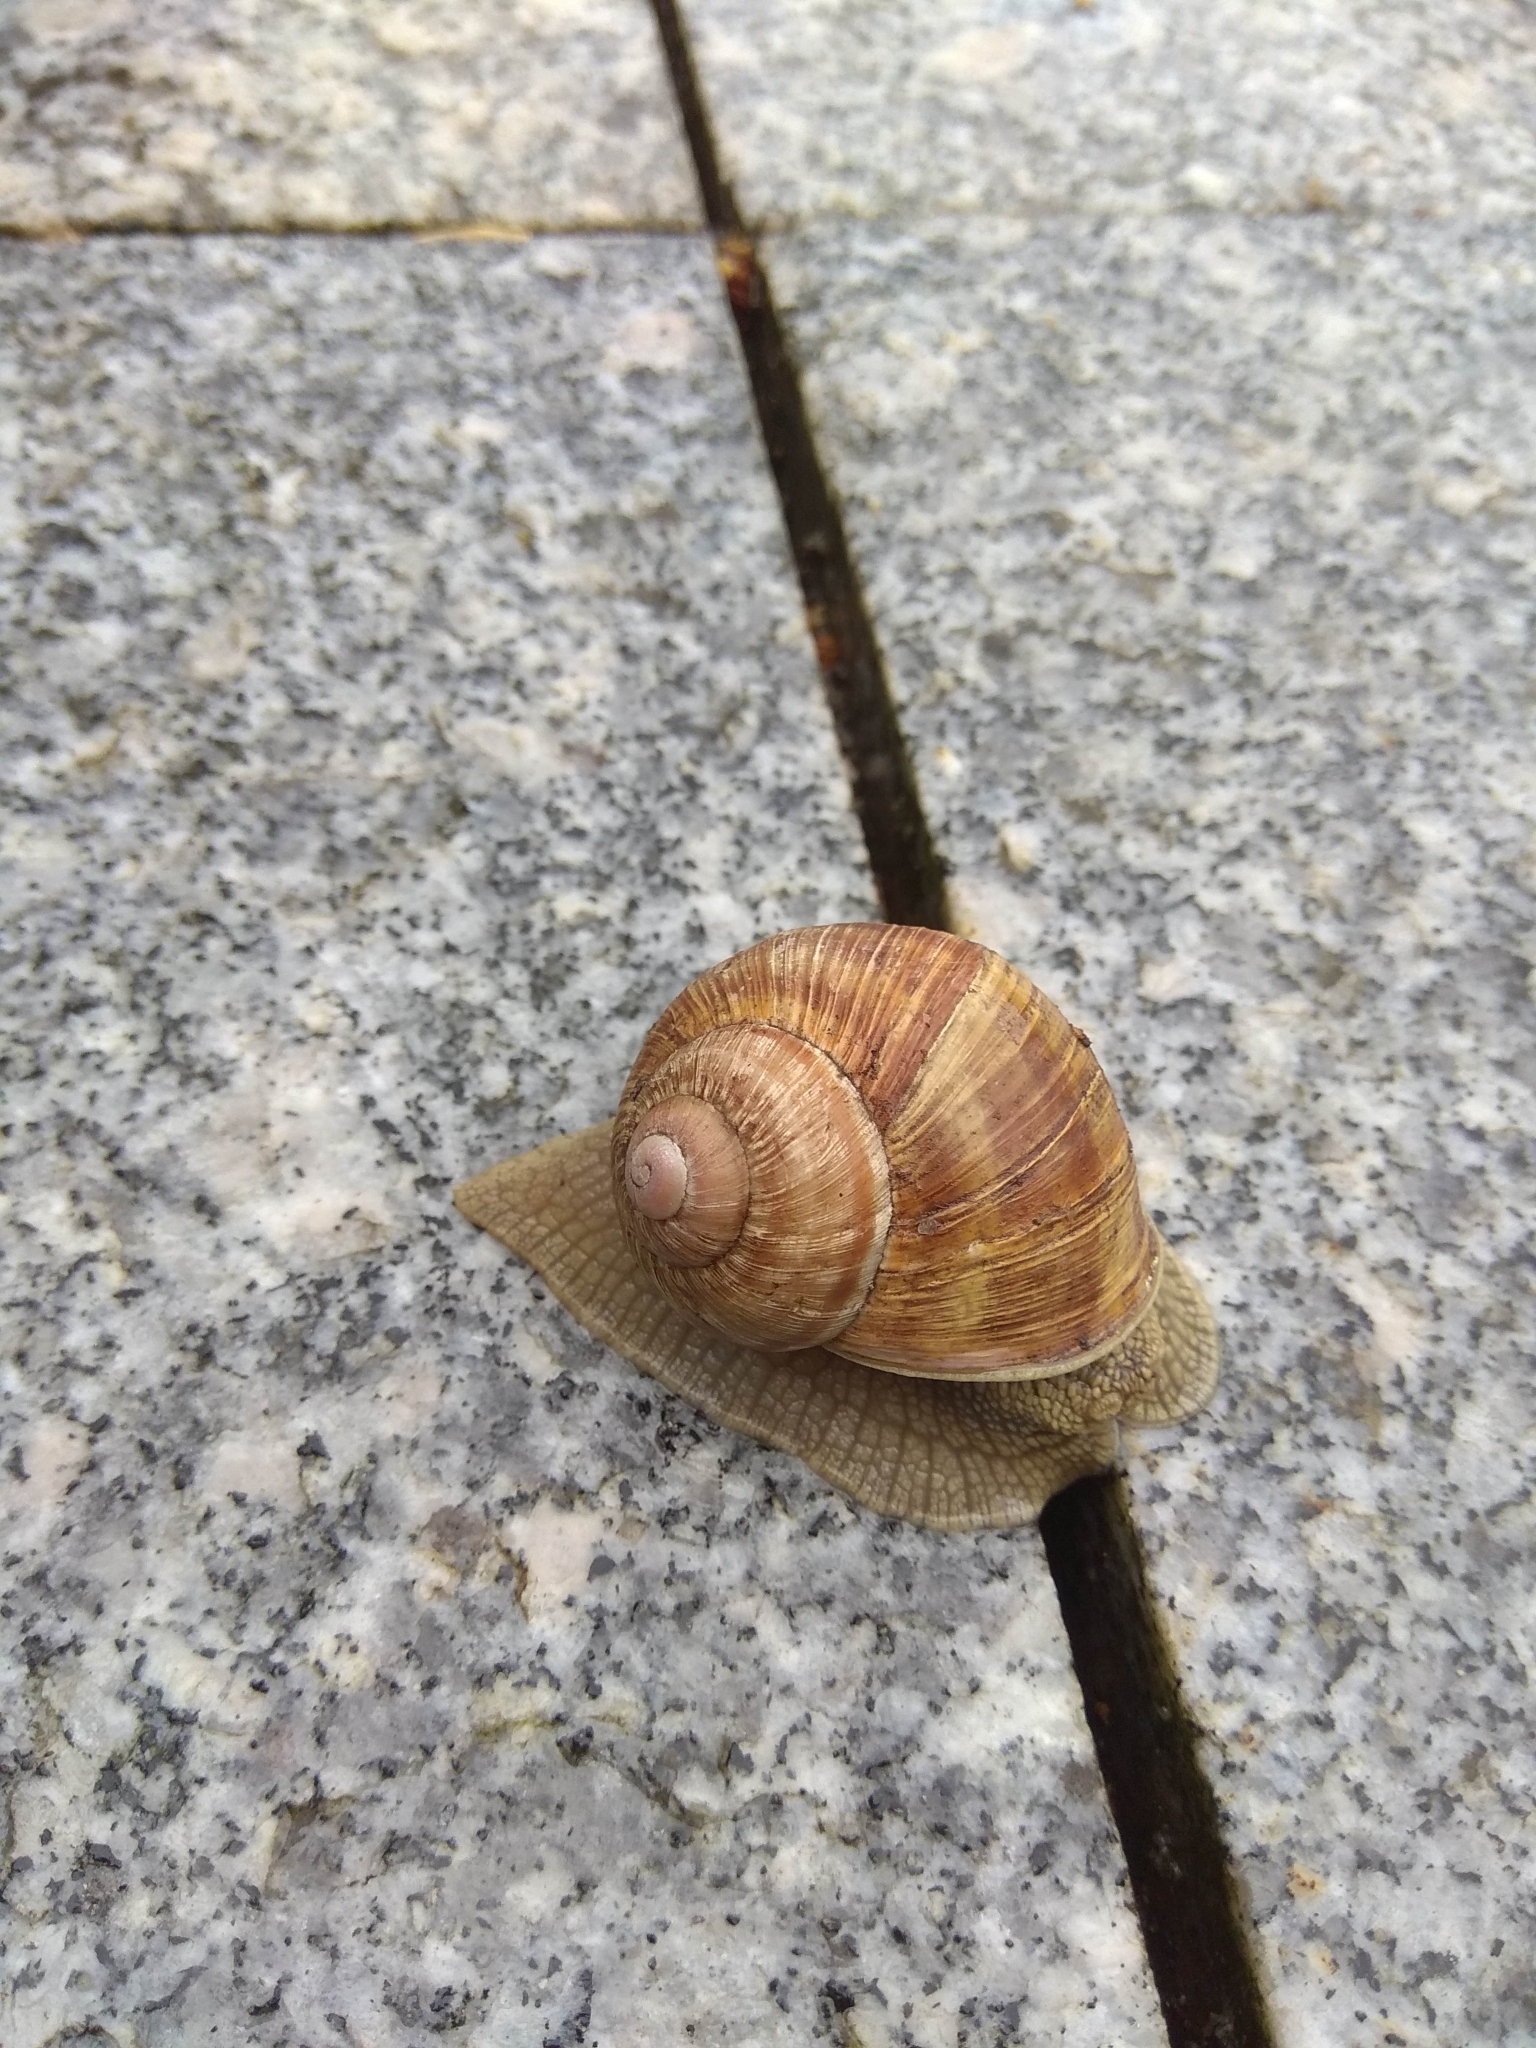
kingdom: Animalia
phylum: Mollusca
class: Gastropoda
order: Stylommatophora
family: Helicidae
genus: Helix
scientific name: Helix pomatia
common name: Roman snail
